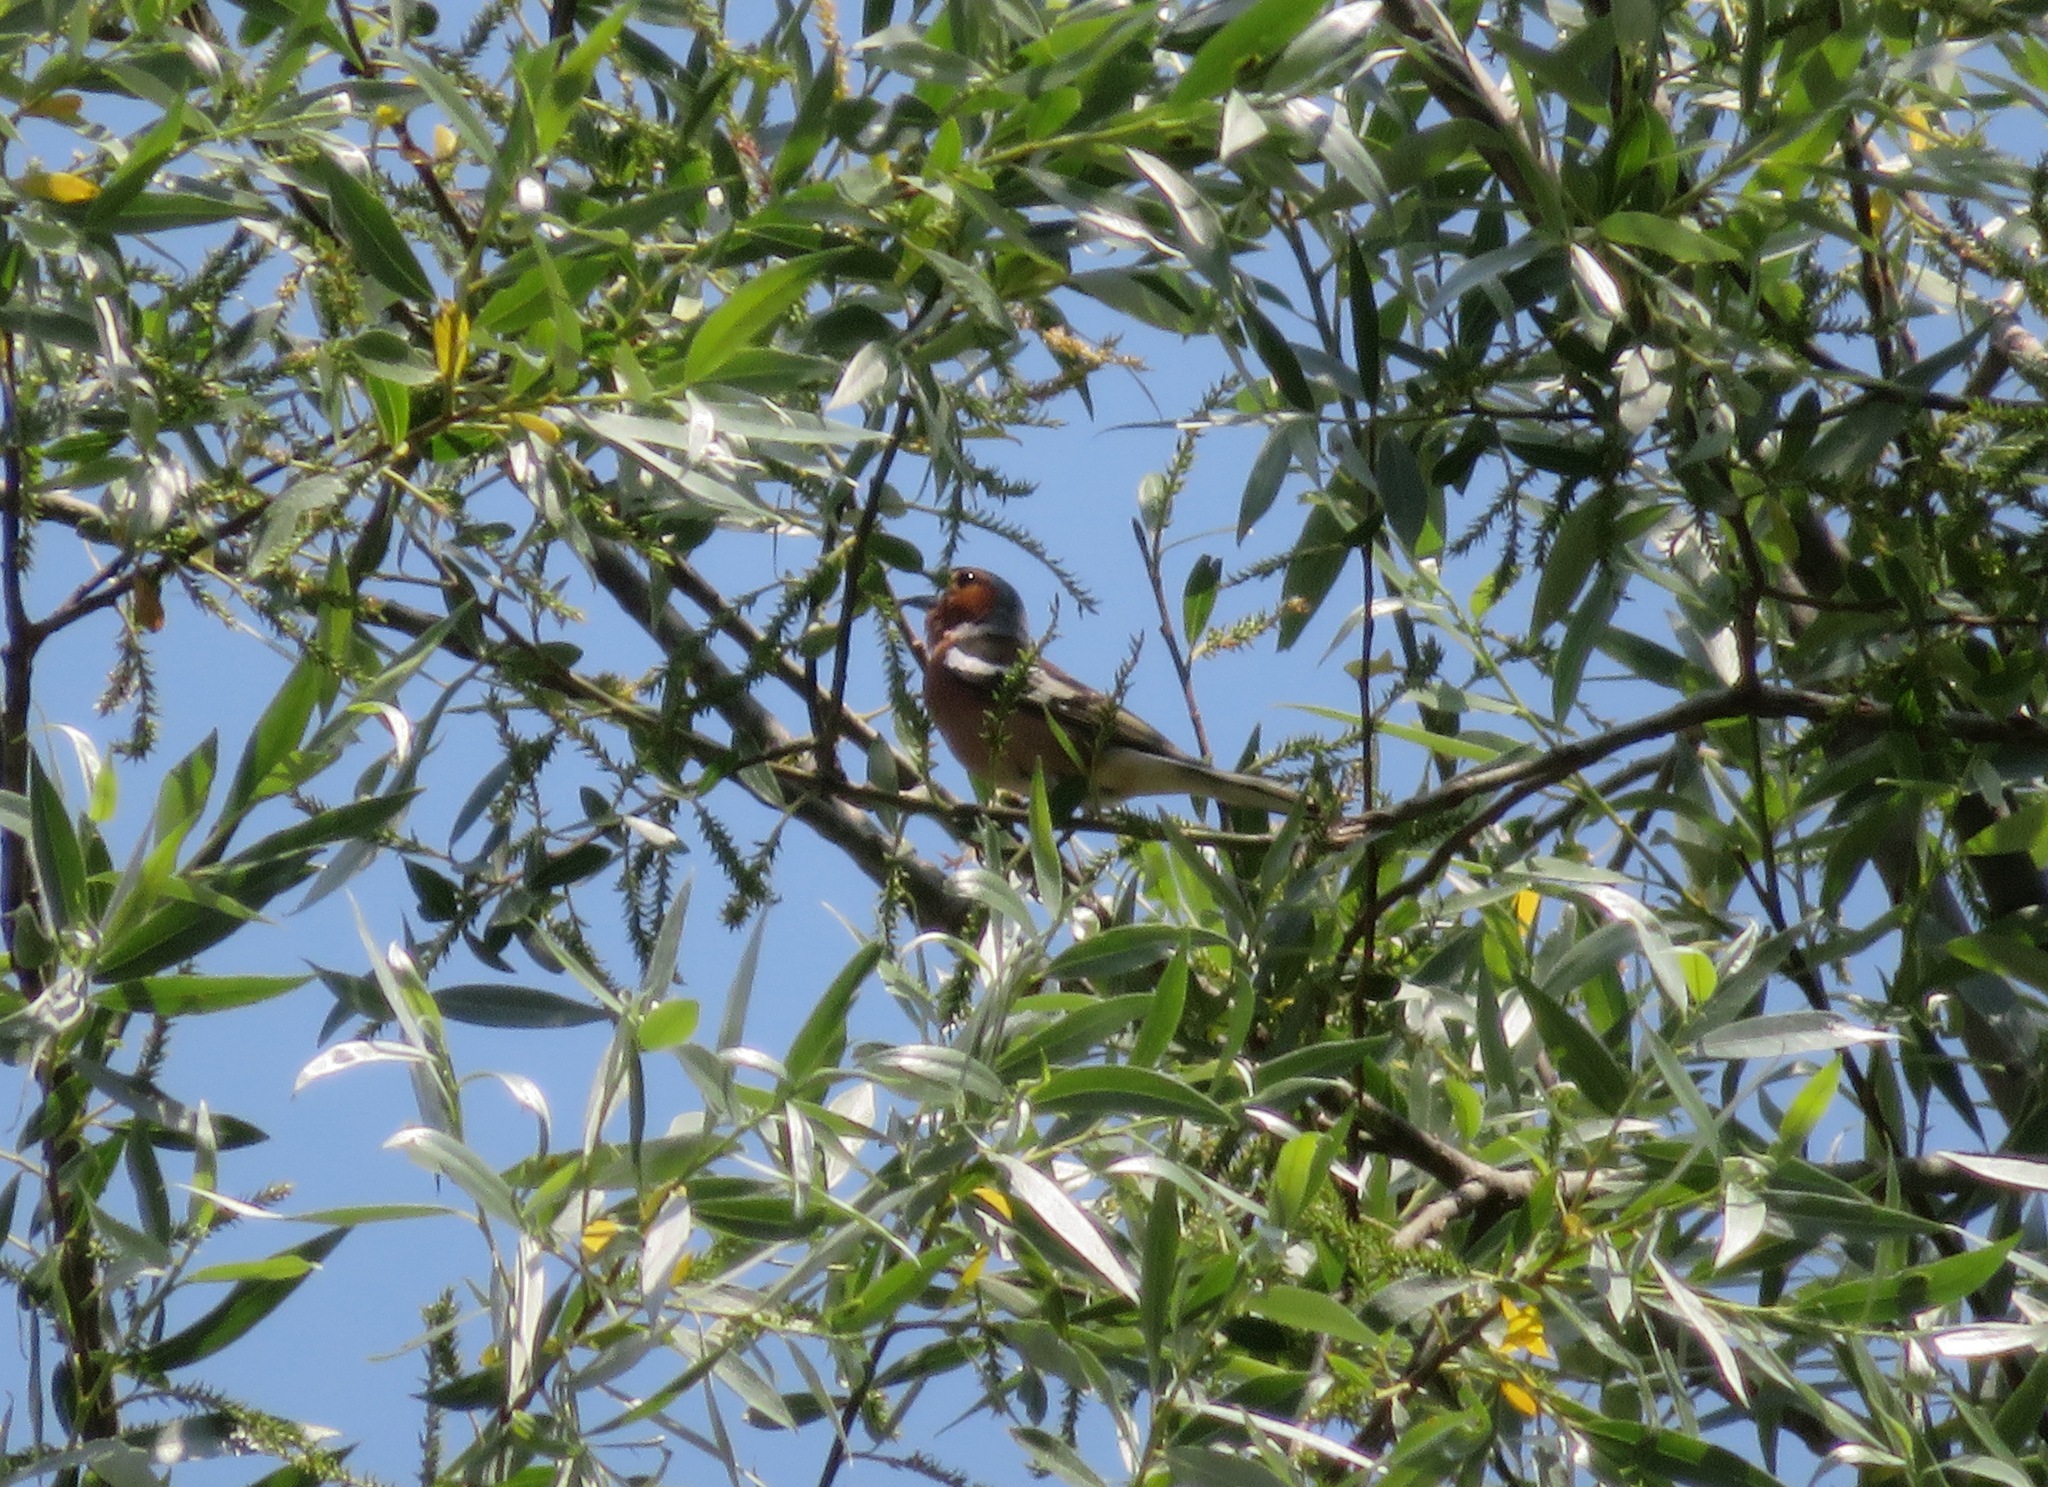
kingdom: Animalia
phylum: Chordata
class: Aves
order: Passeriformes
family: Fringillidae
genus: Fringilla
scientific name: Fringilla coelebs
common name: Common chaffinch
